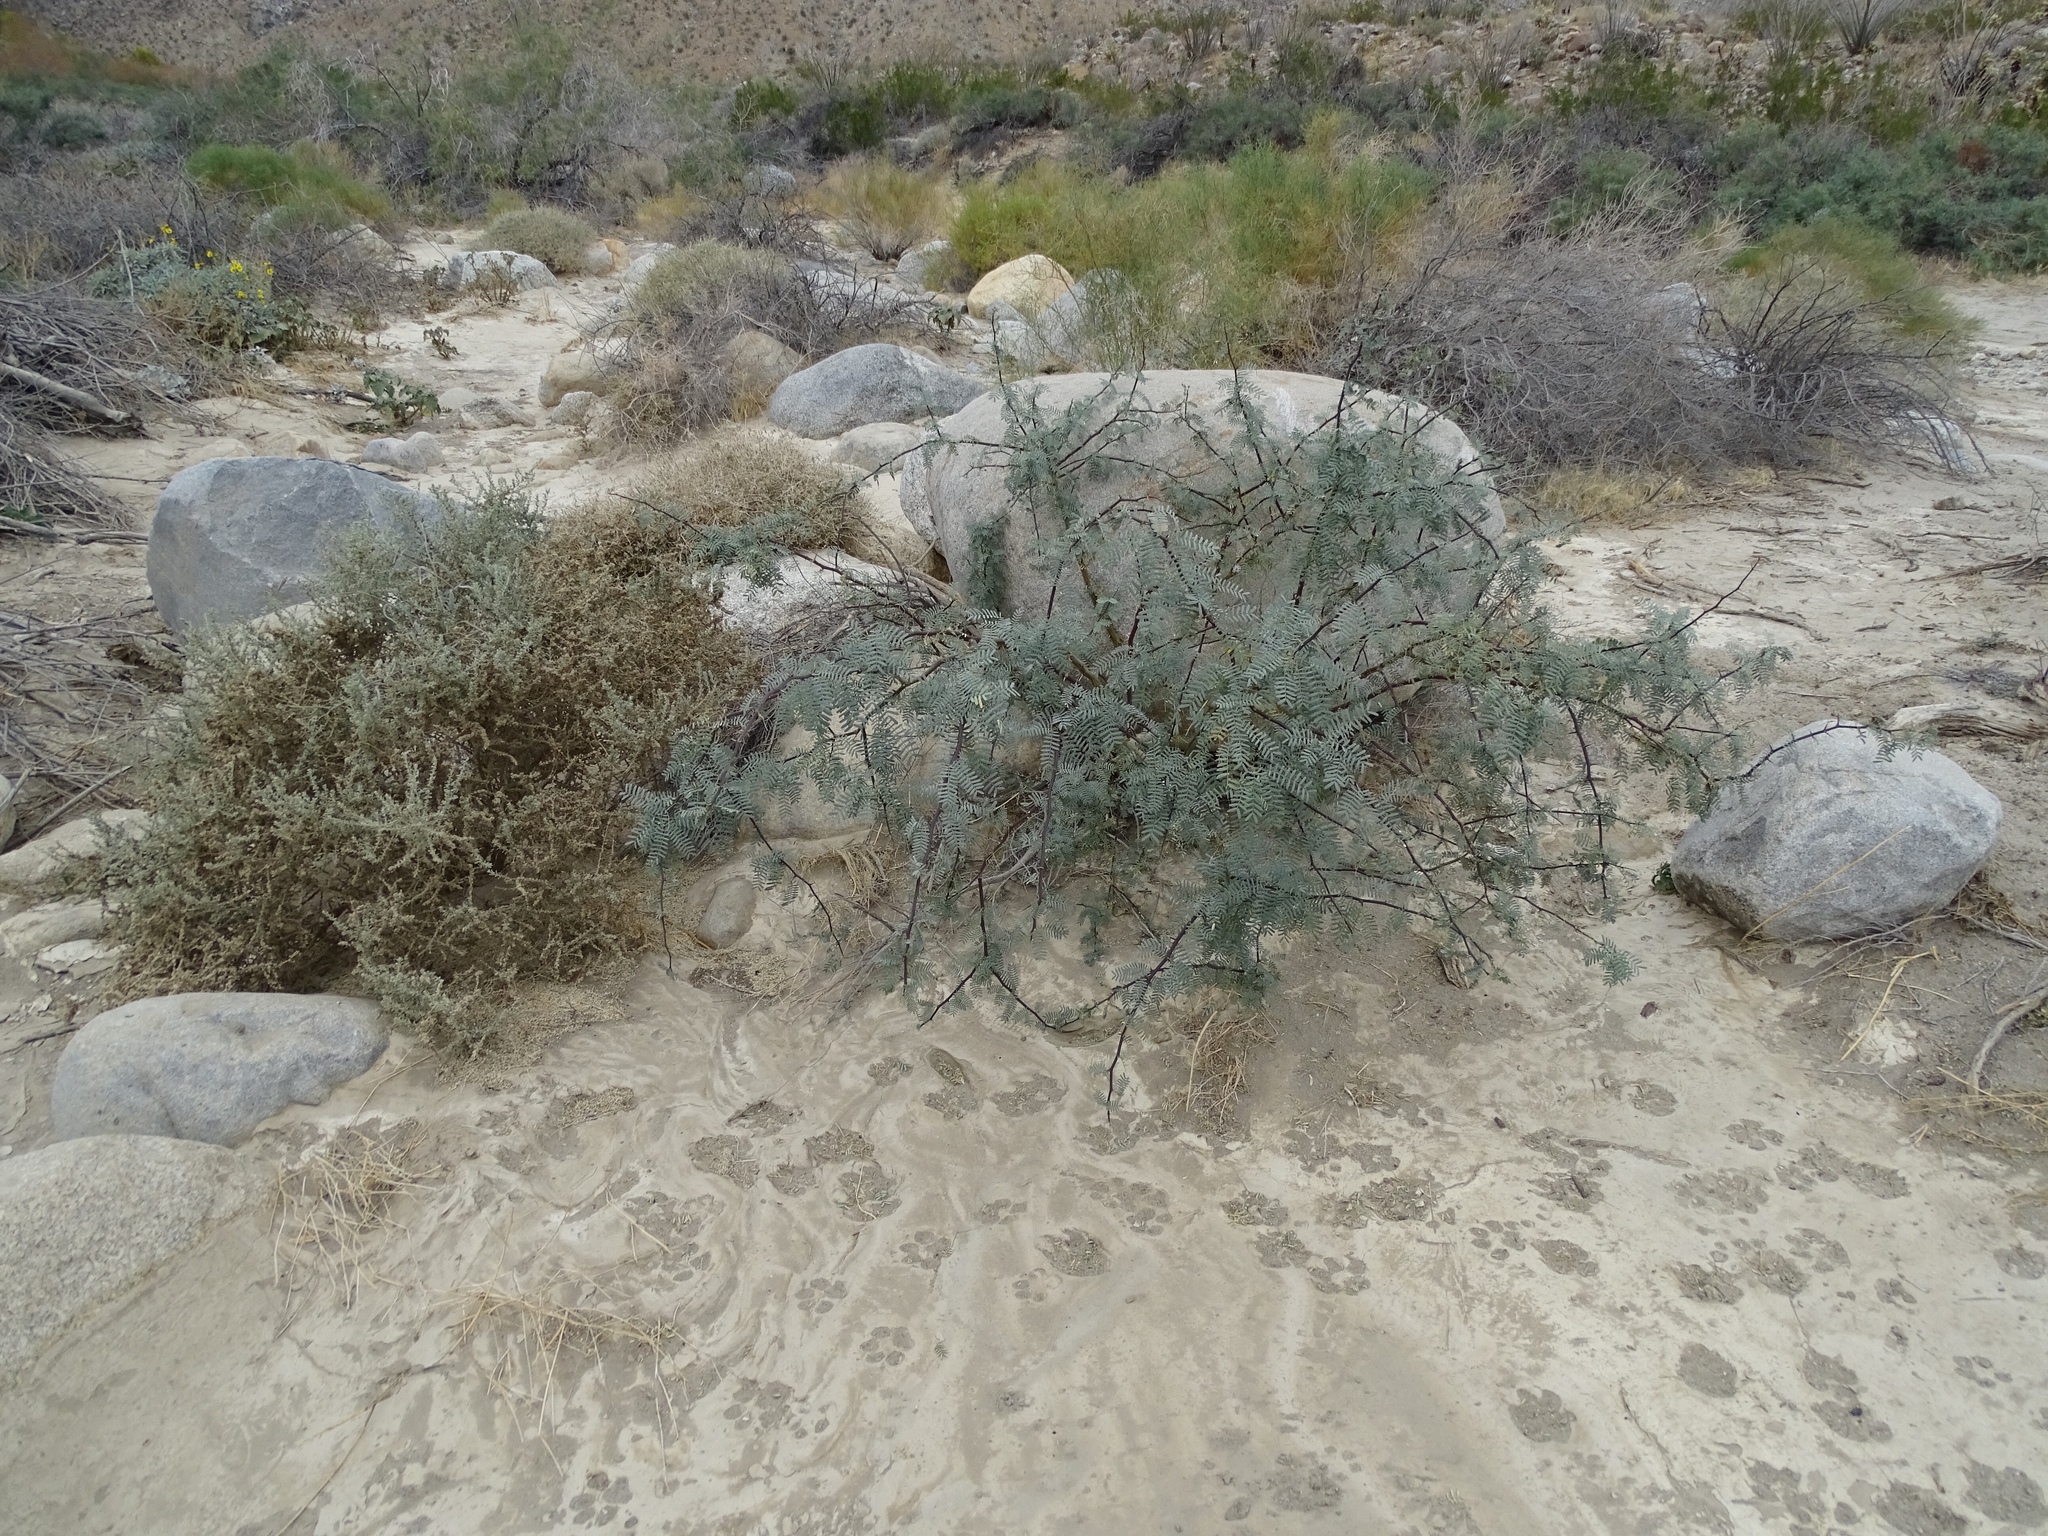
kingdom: Plantae
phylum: Tracheophyta
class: Magnoliopsida
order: Fabales
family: Fabaceae
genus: Prosopis
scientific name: Prosopis pubescens
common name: Screw-bean
